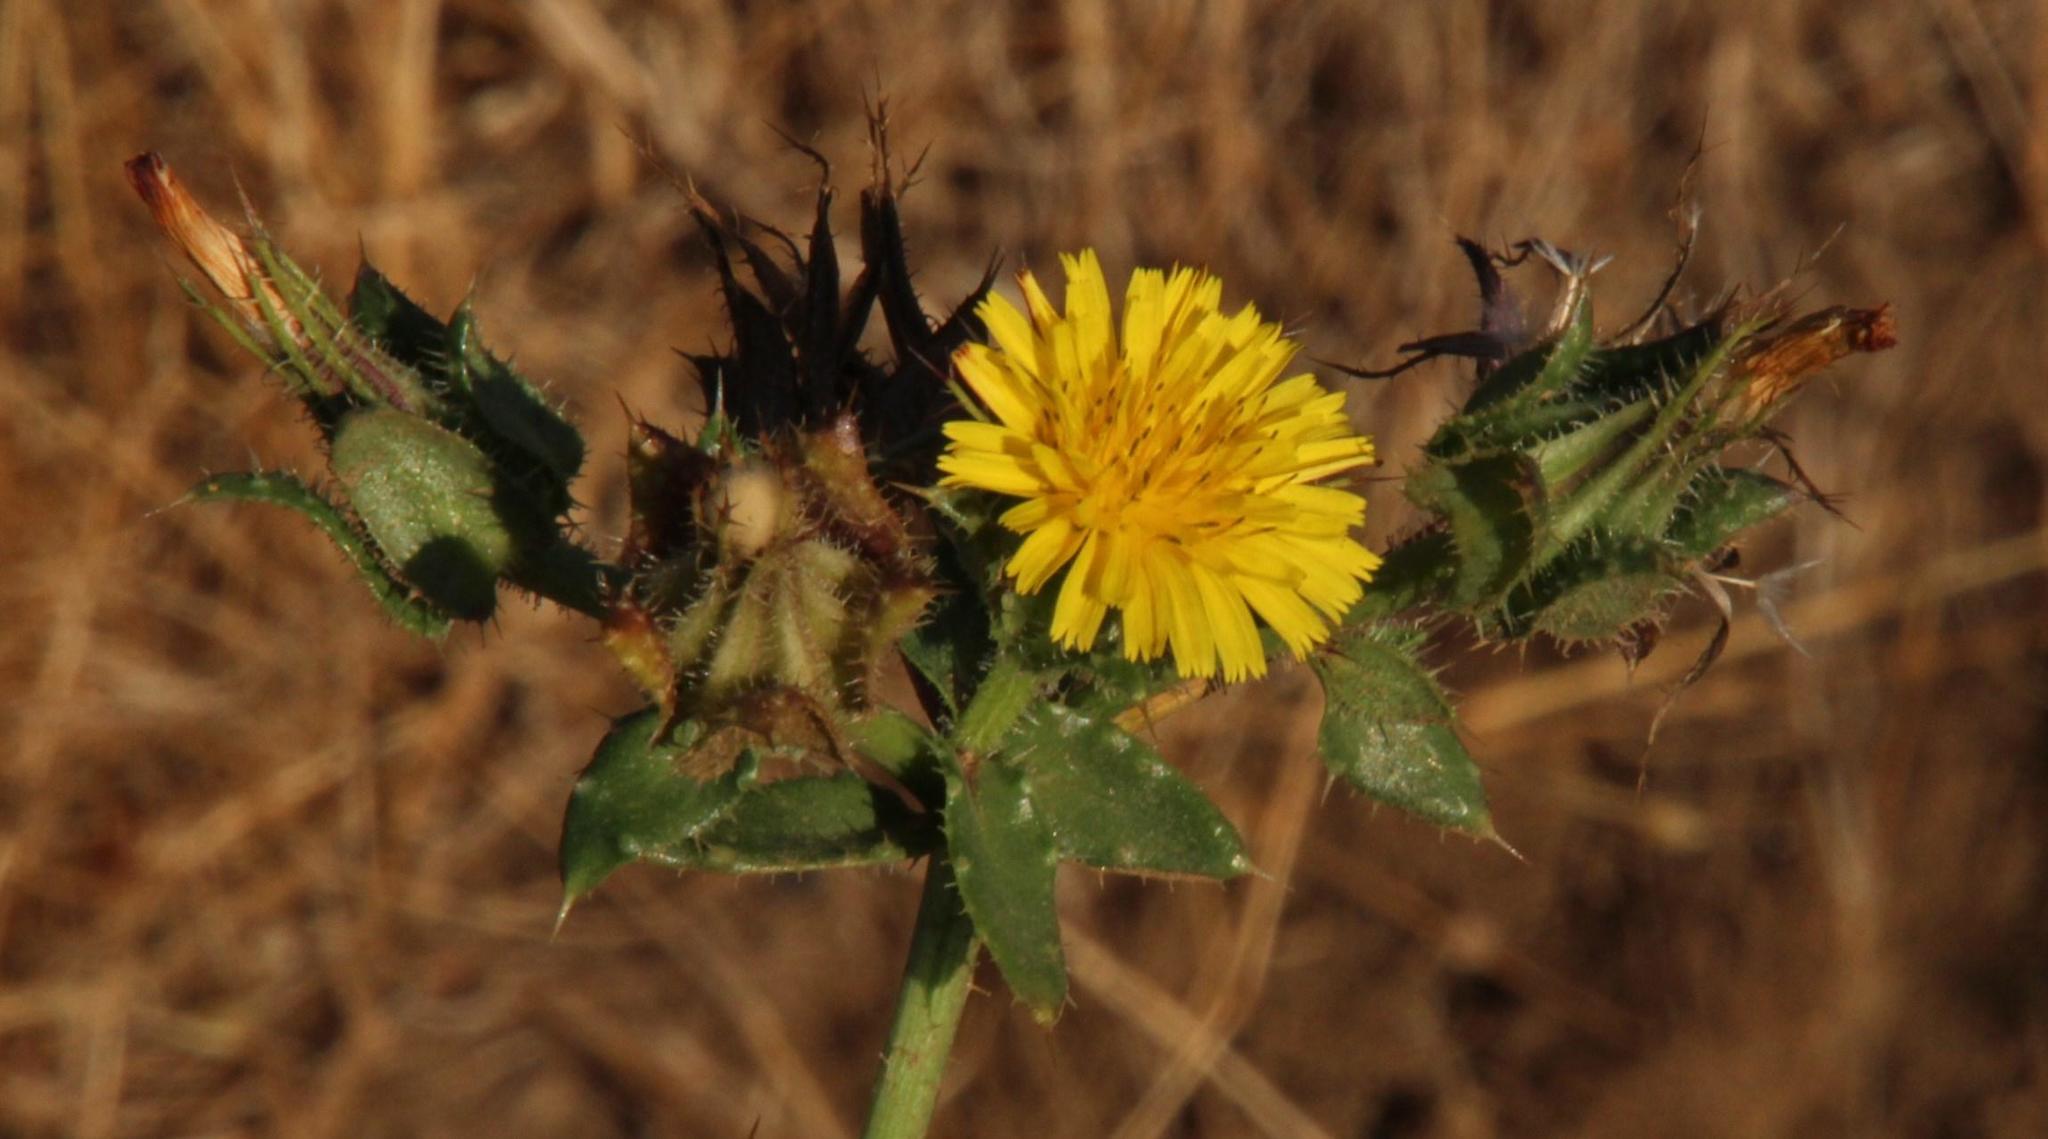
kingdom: Plantae
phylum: Tracheophyta
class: Magnoliopsida
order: Asterales
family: Asteraceae
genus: Helminthotheca
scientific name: Helminthotheca echioides
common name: Ox-tongue
